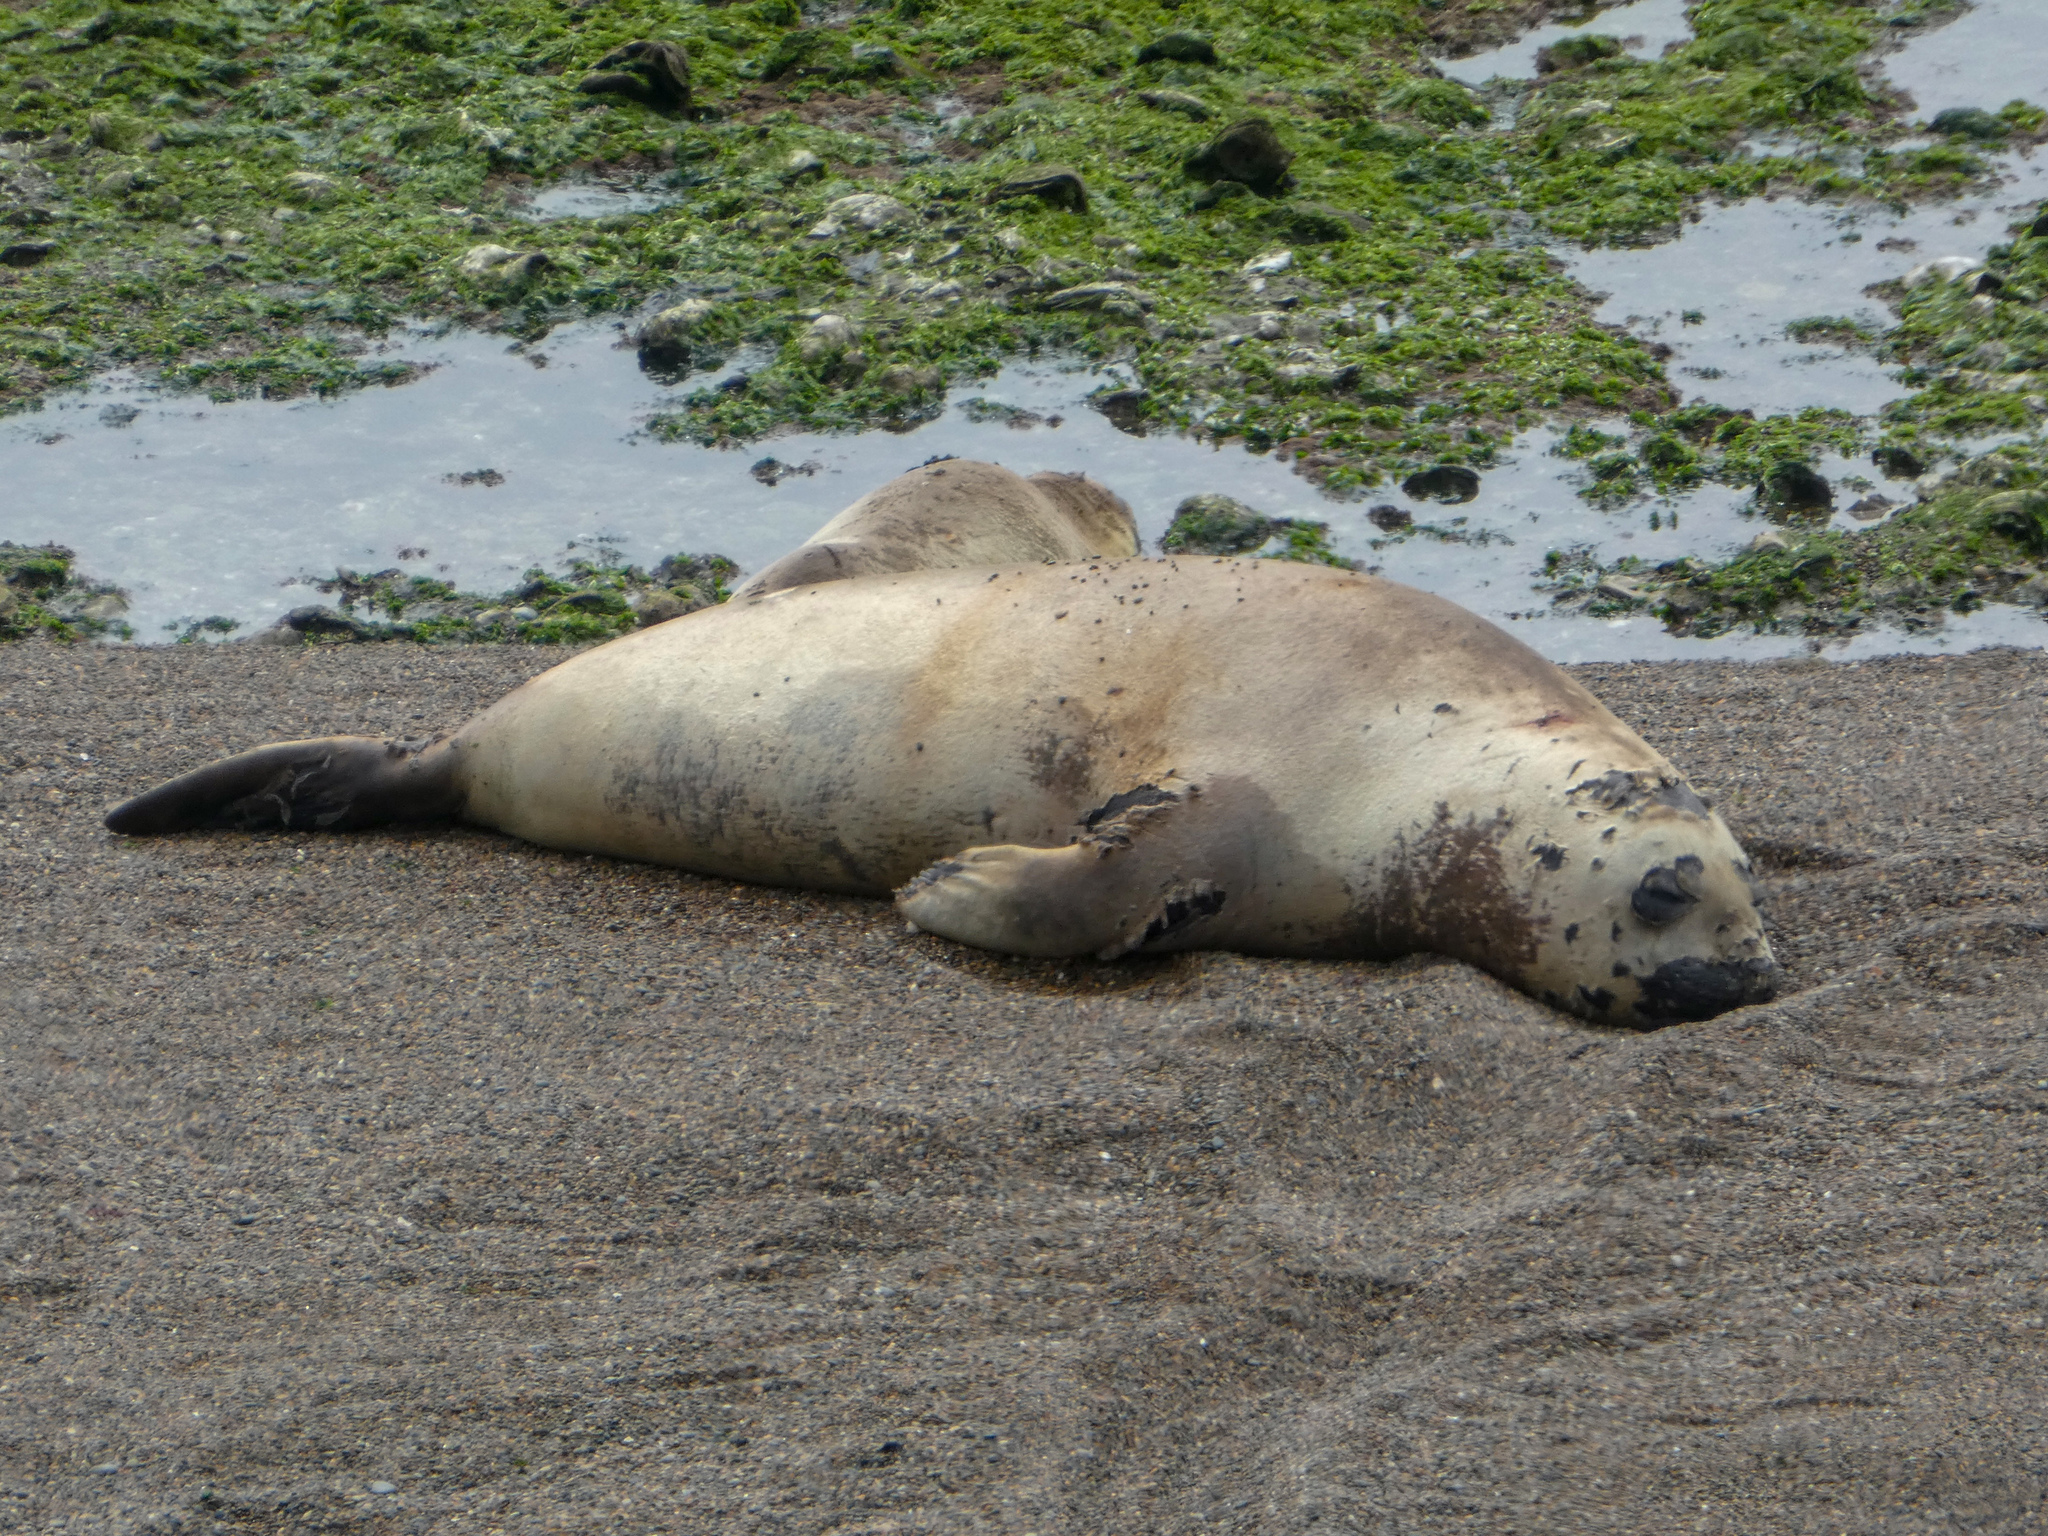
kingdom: Animalia
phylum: Chordata
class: Mammalia
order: Carnivora
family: Phocidae
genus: Mirounga
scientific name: Mirounga leonina
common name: Southern elephant seal
